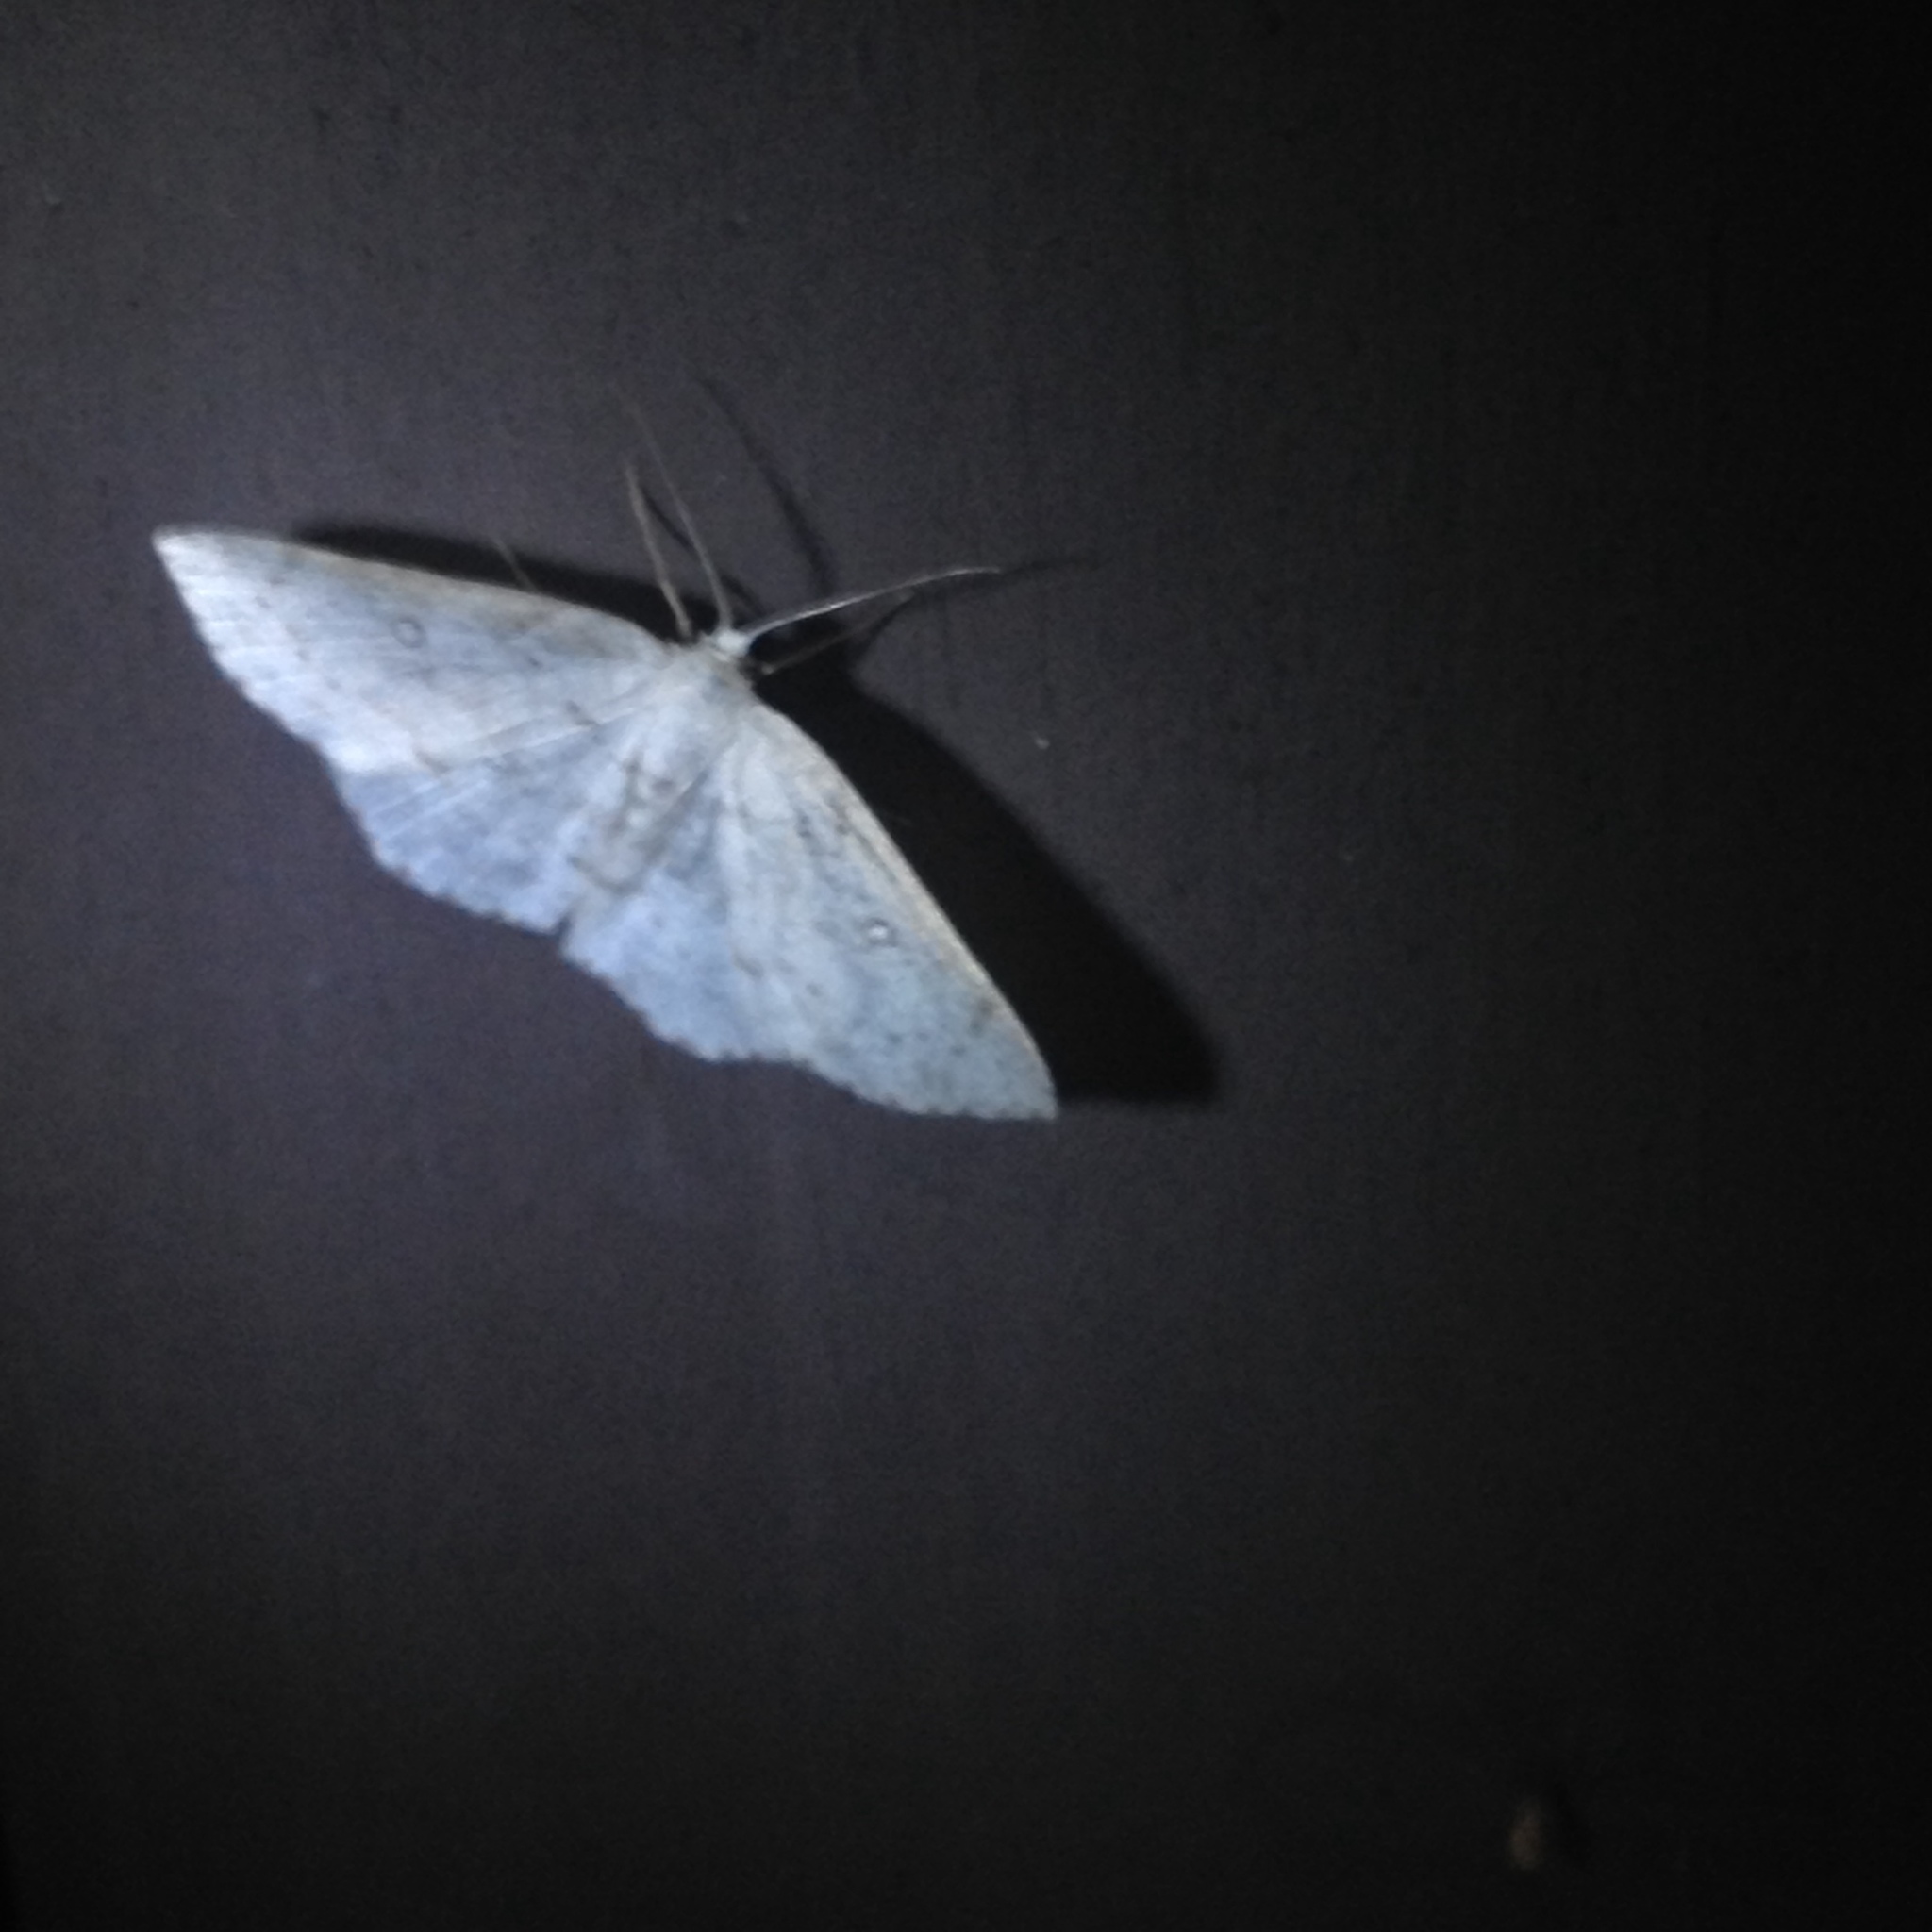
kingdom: Animalia
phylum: Arthropoda
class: Insecta
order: Lepidoptera
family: Geometridae
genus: Cyclophora
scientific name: Cyclophora pendulinaria
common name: Sweet fern geometer
